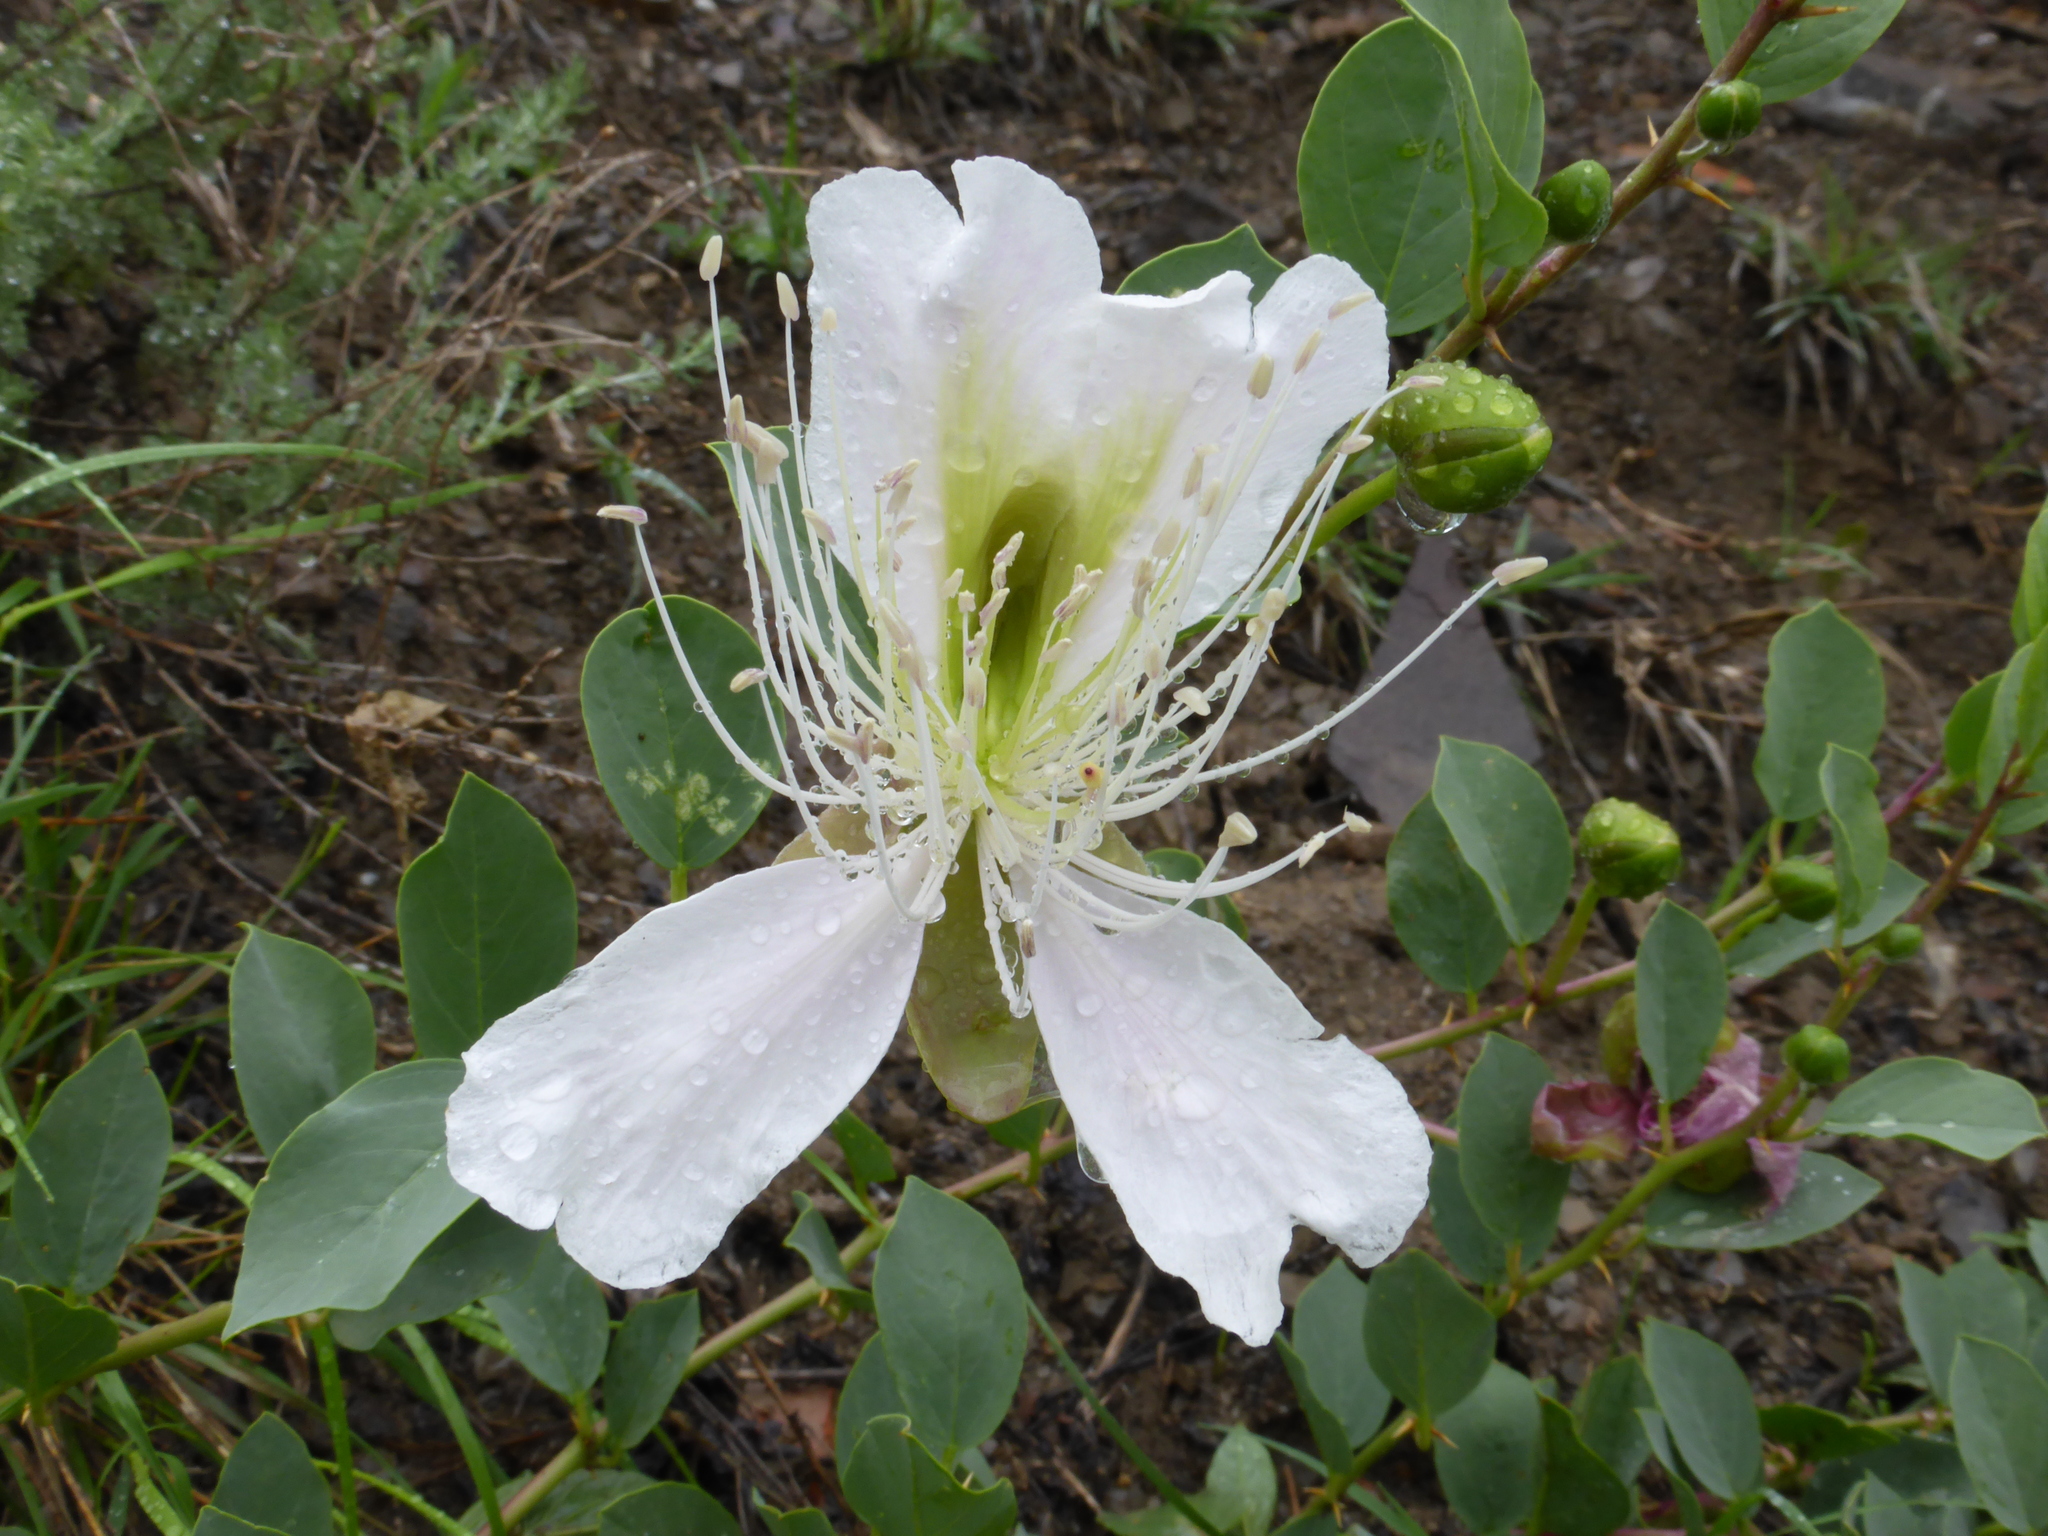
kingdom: Plantae
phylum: Tracheophyta
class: Magnoliopsida
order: Brassicales
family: Capparaceae
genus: Capparis
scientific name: Capparis spinosa
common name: Caper
